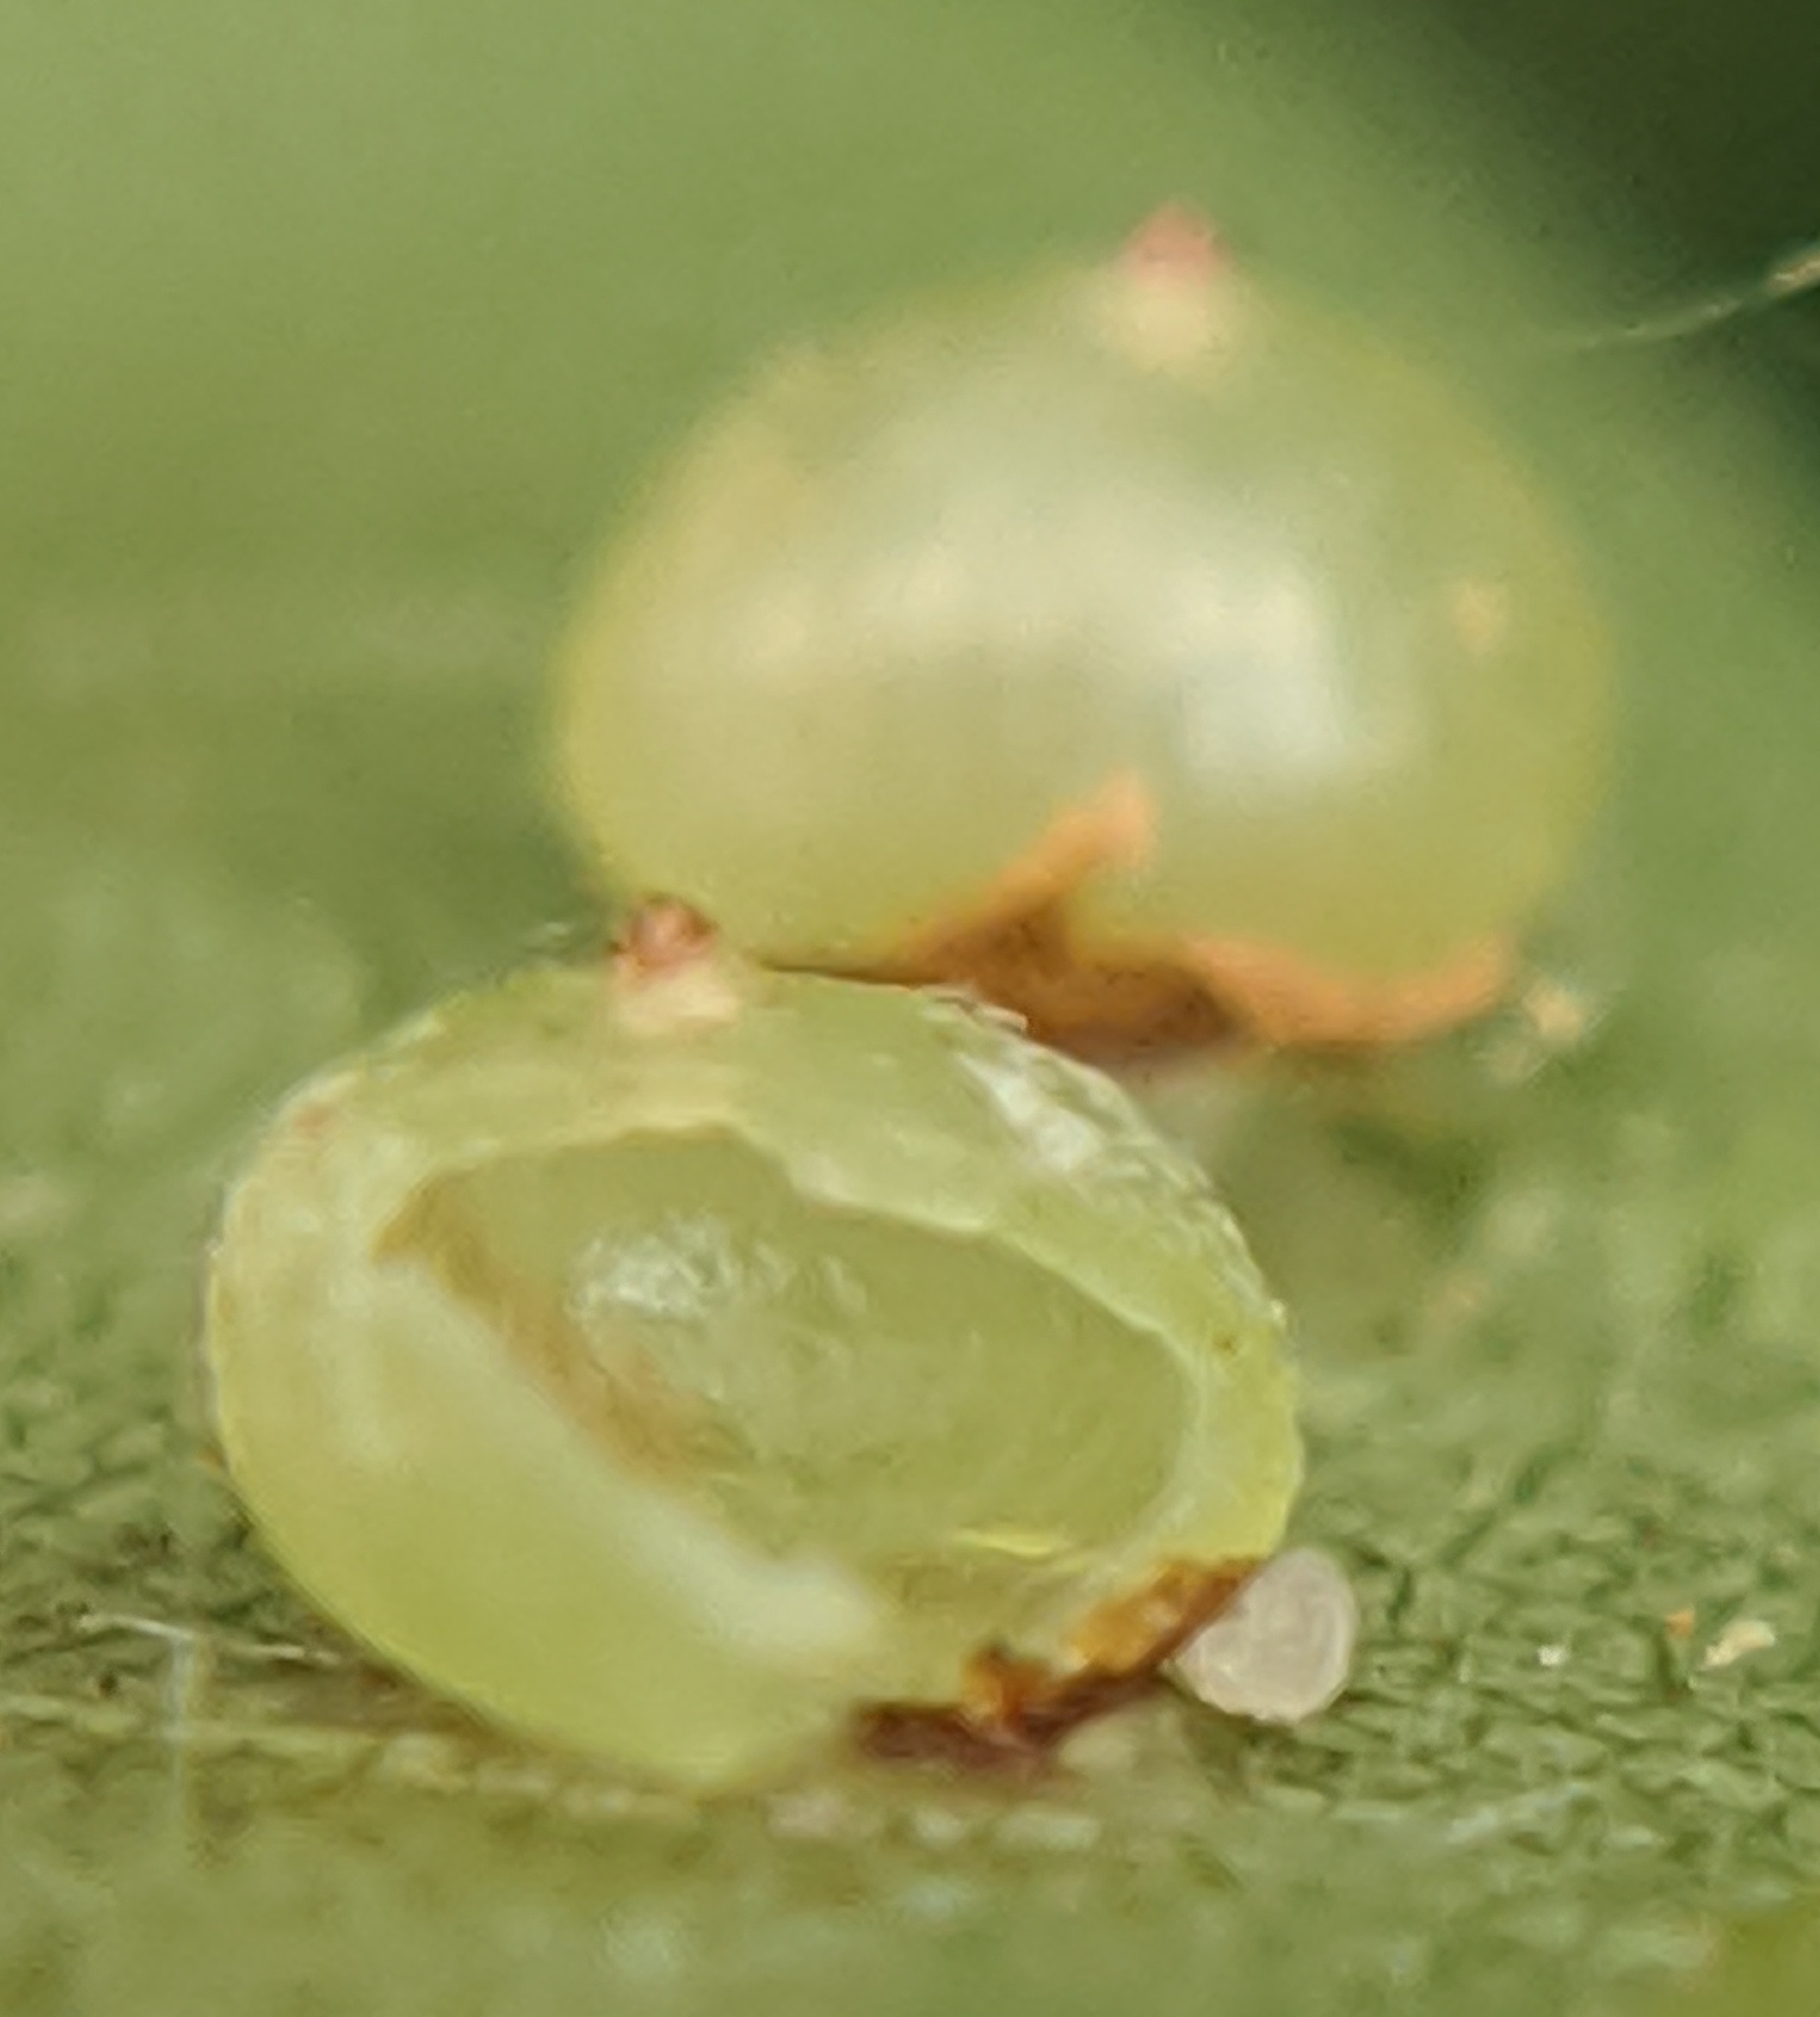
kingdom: Animalia
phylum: Arthropoda
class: Insecta
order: Diptera
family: Cecidomyiidae
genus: Caryomyia
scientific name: Caryomyia deflexipili
